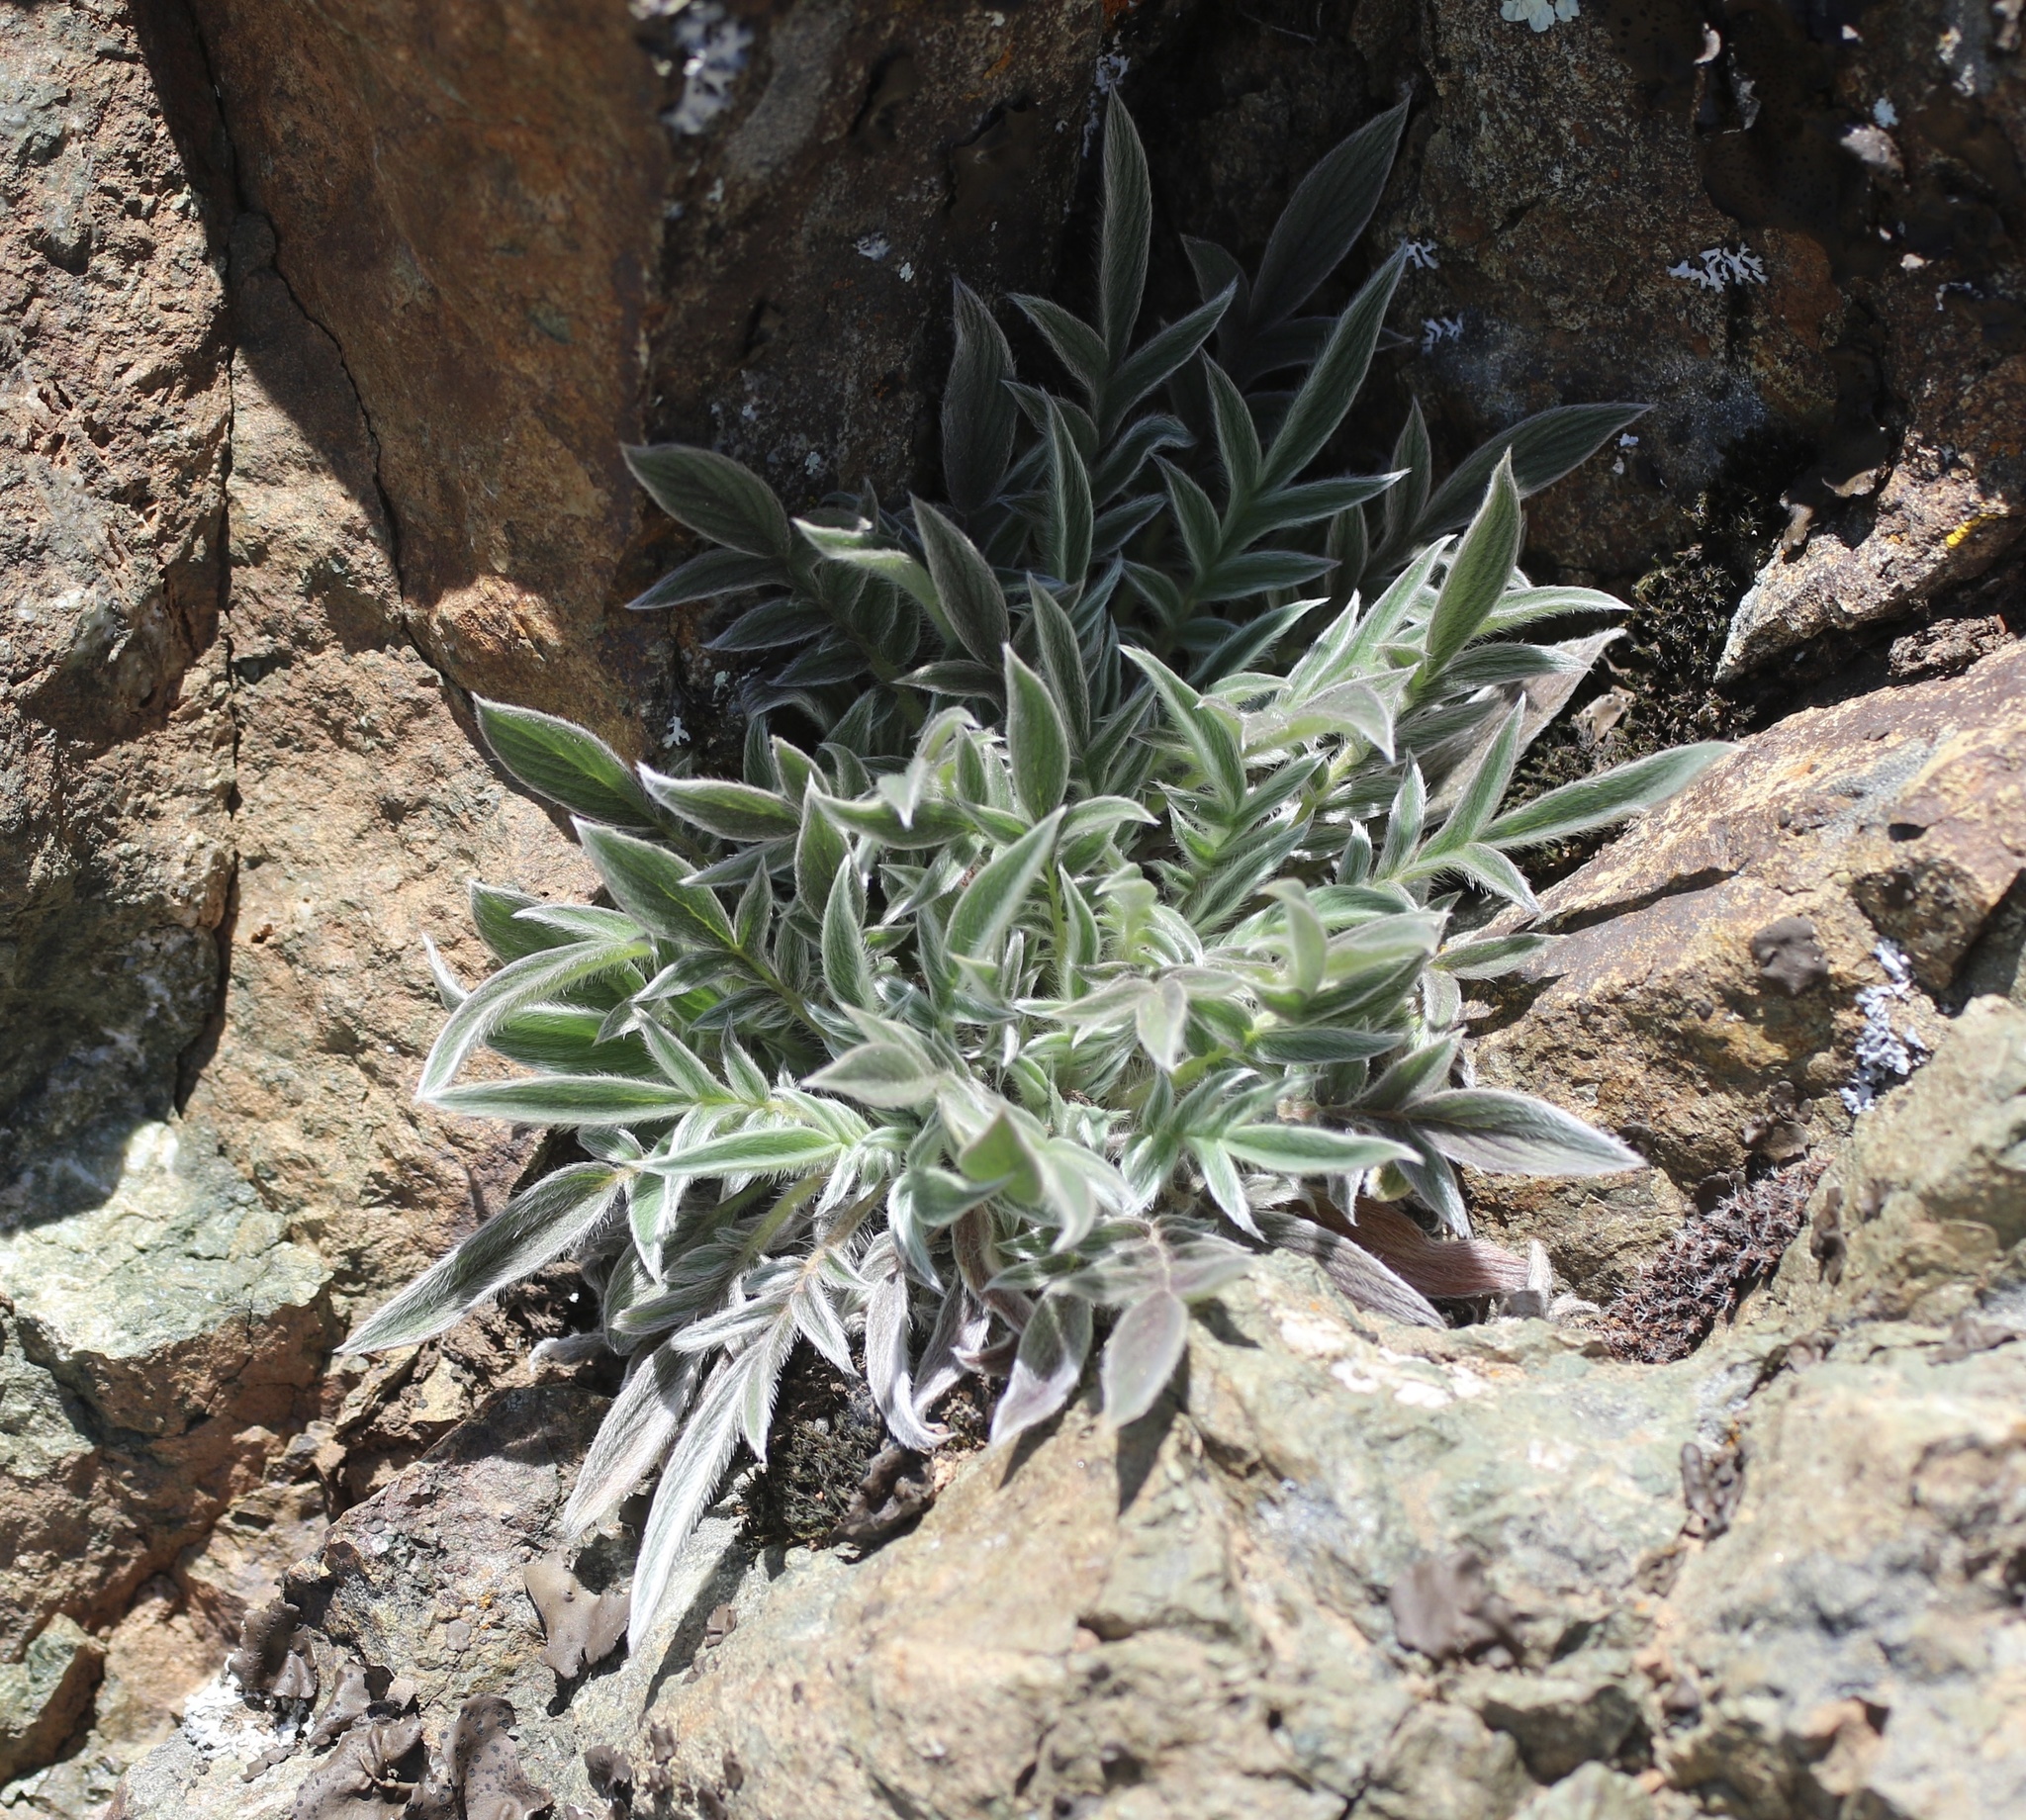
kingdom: Plantae
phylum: Tracheophyta
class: Magnoliopsida
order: Boraginales
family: Hydrophyllaceae
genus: Phacelia
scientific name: Phacelia imbricata
